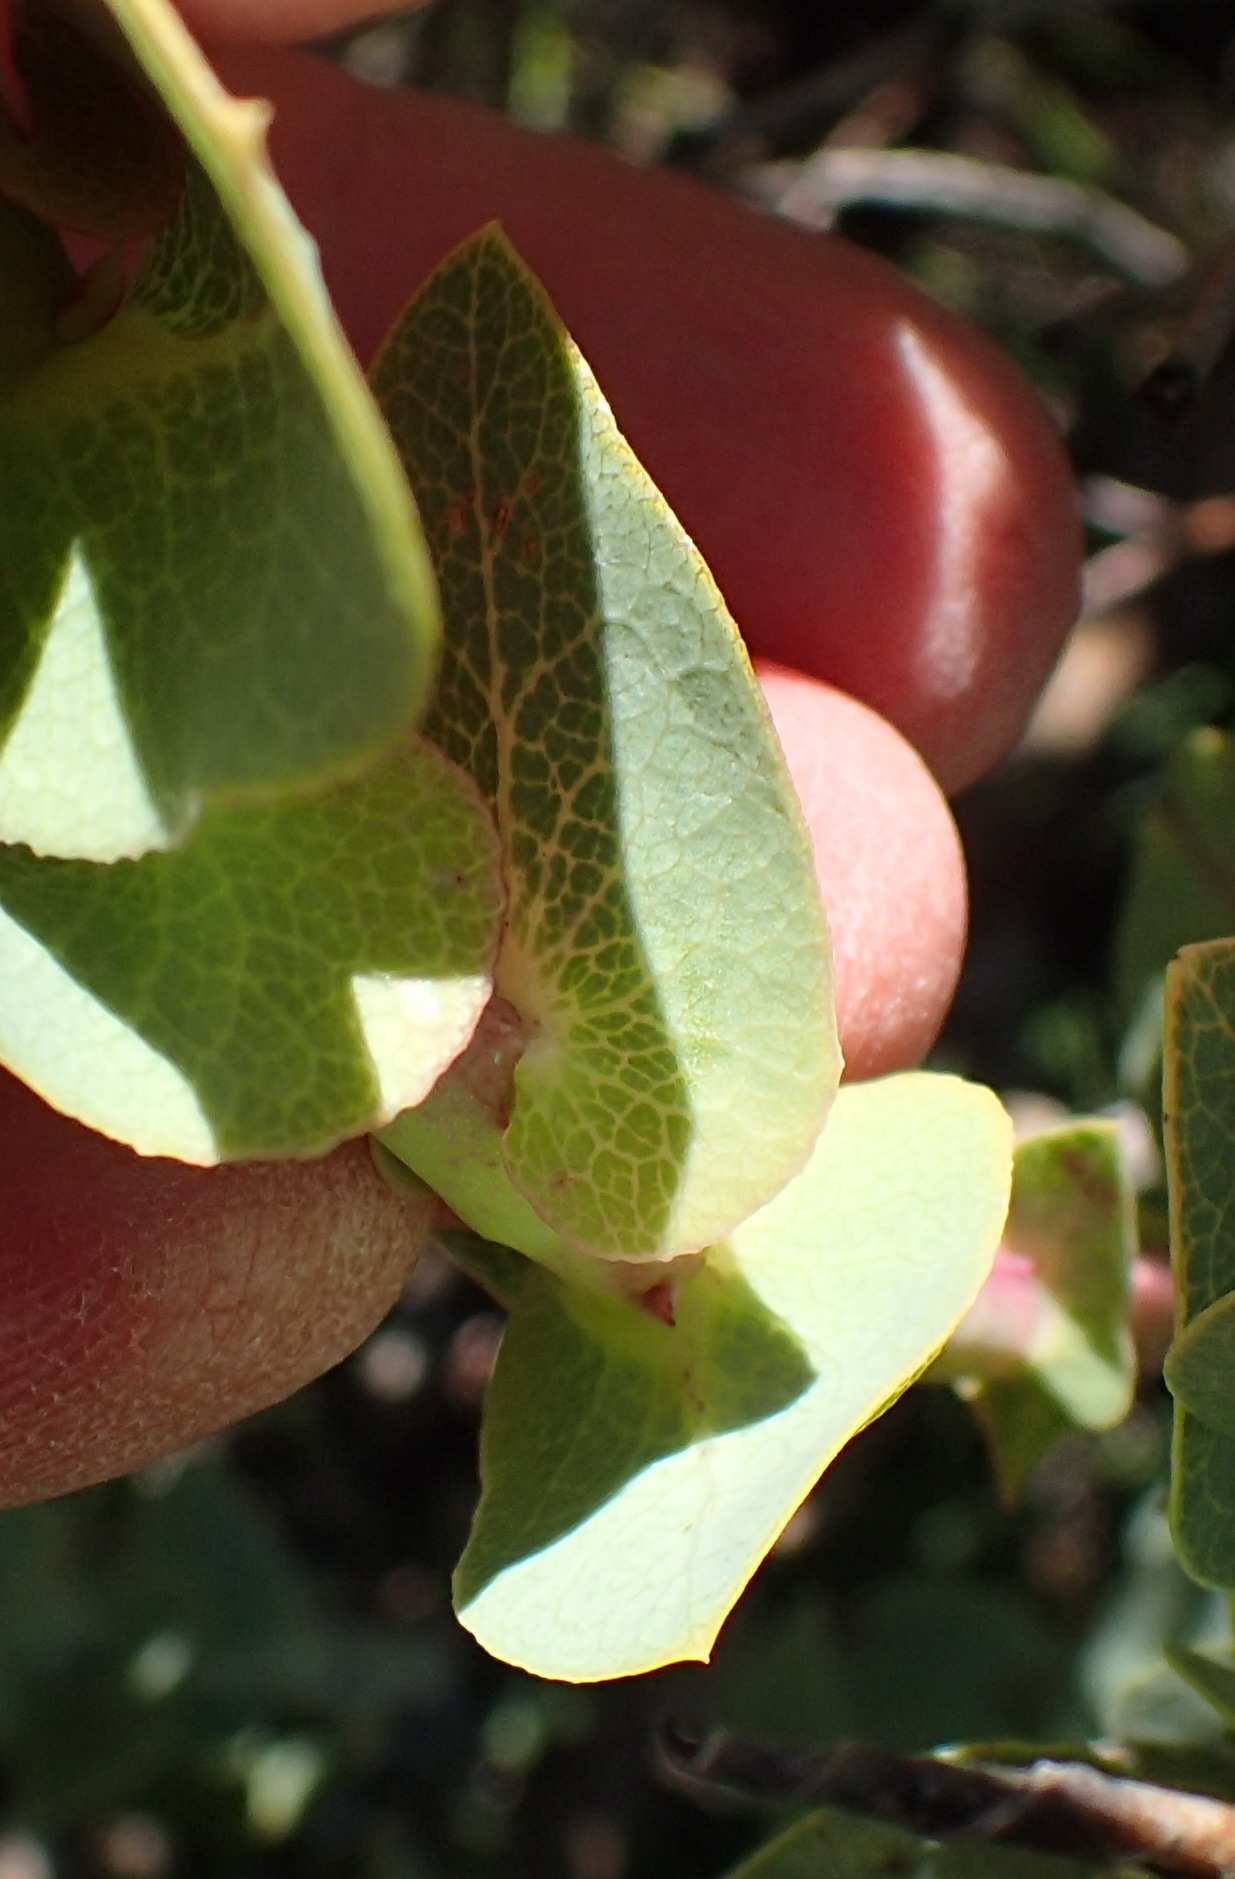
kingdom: Plantae
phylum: Tracheophyta
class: Magnoliopsida
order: Fabales
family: Fabaceae
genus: Rafnia
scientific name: Rafnia amplexicaulis
